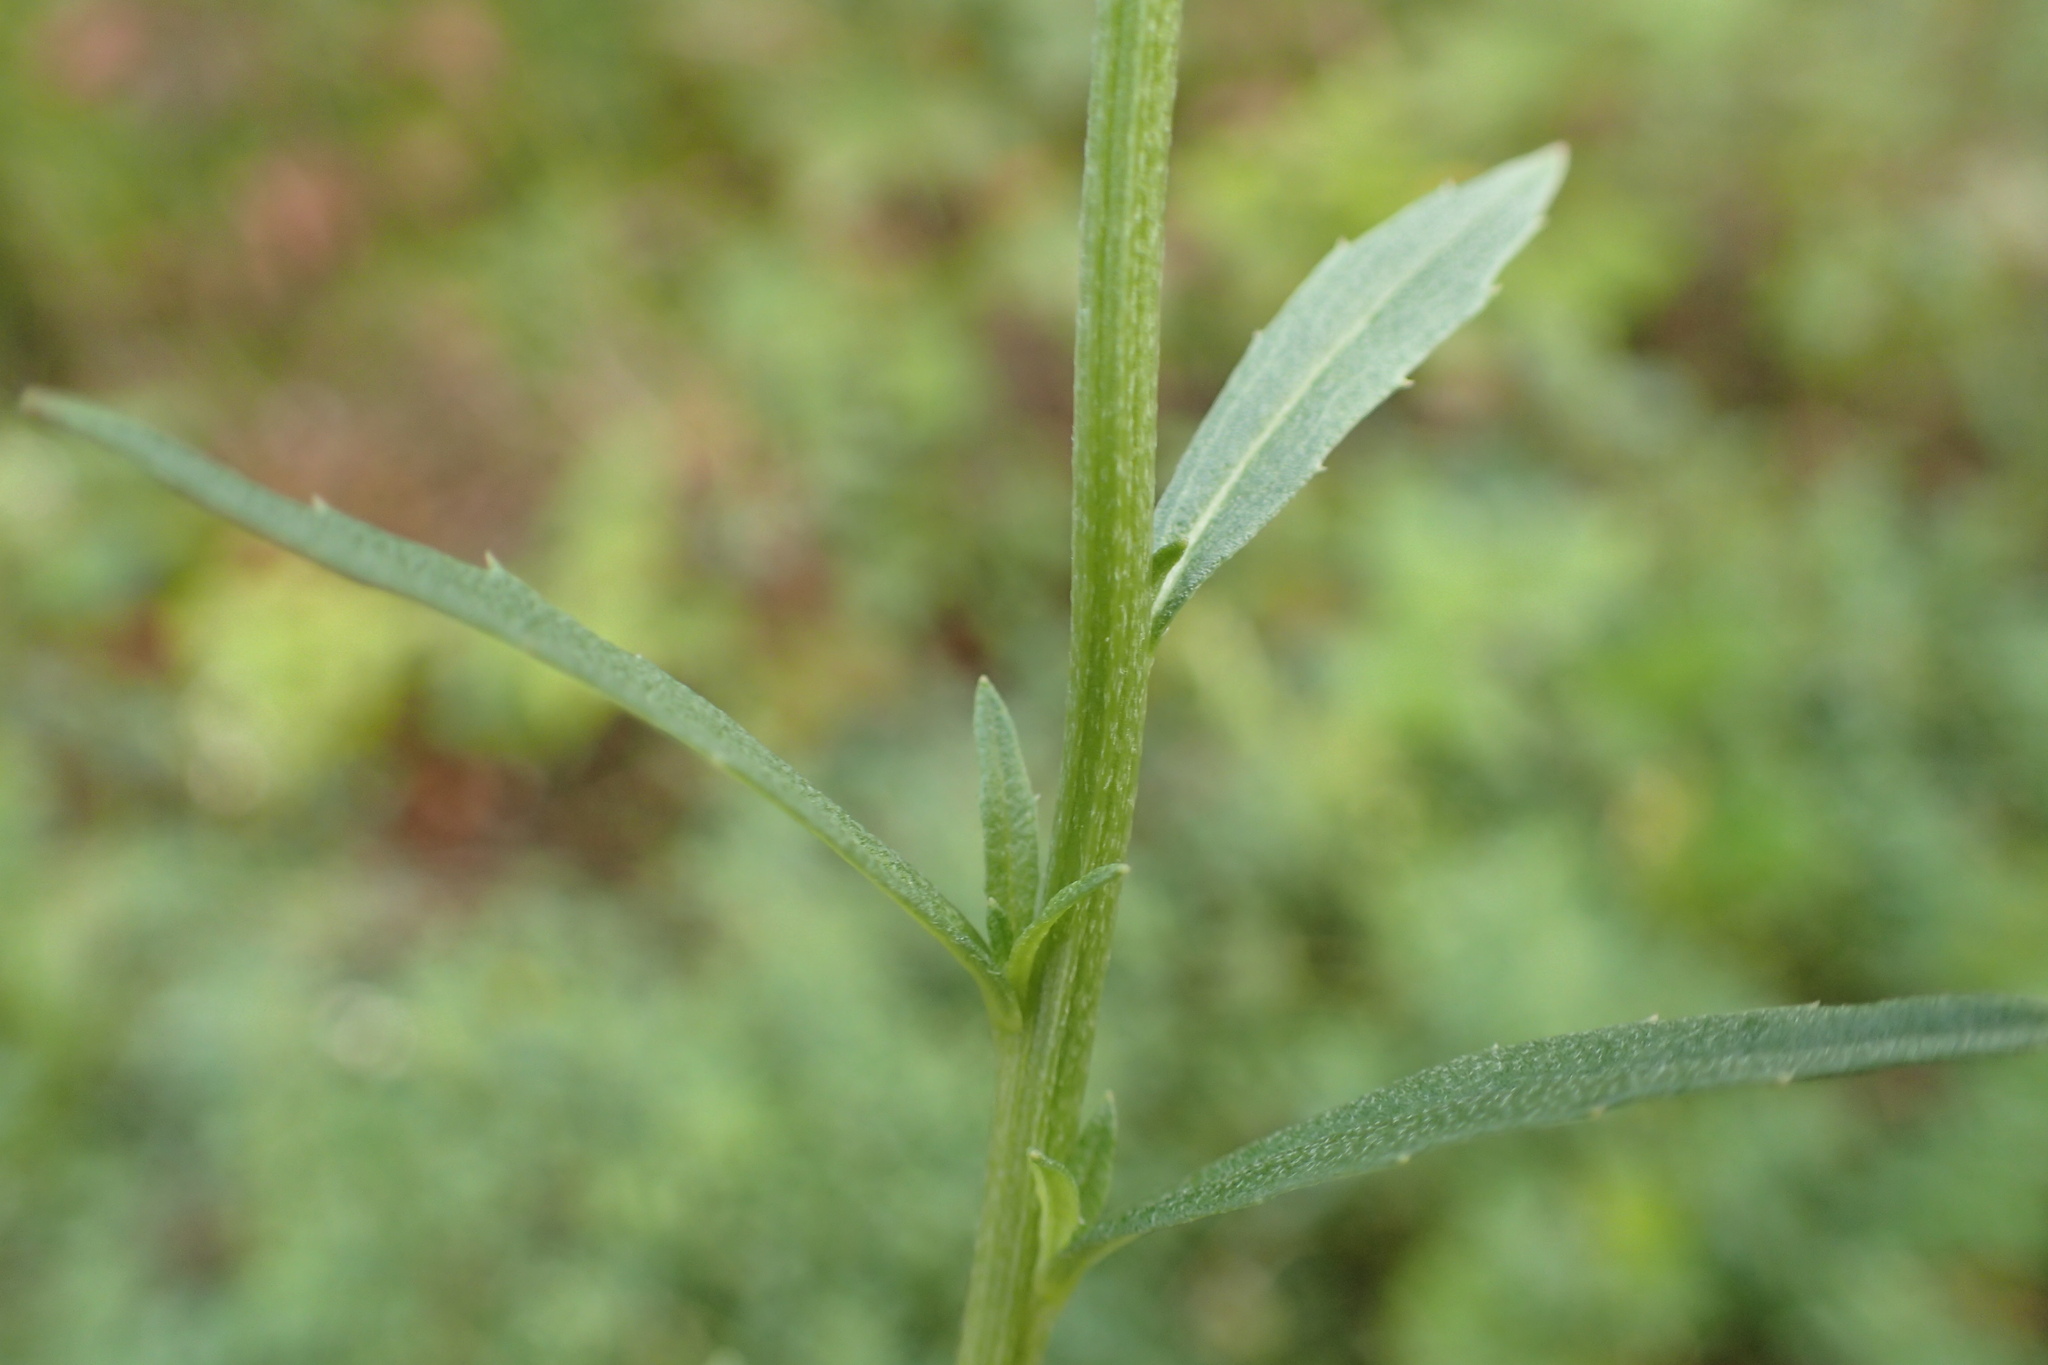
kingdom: Plantae
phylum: Tracheophyta
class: Magnoliopsida
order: Brassicales
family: Brassicaceae
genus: Erysimum
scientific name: Erysimum cheiranthoides
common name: Treacle mustard
